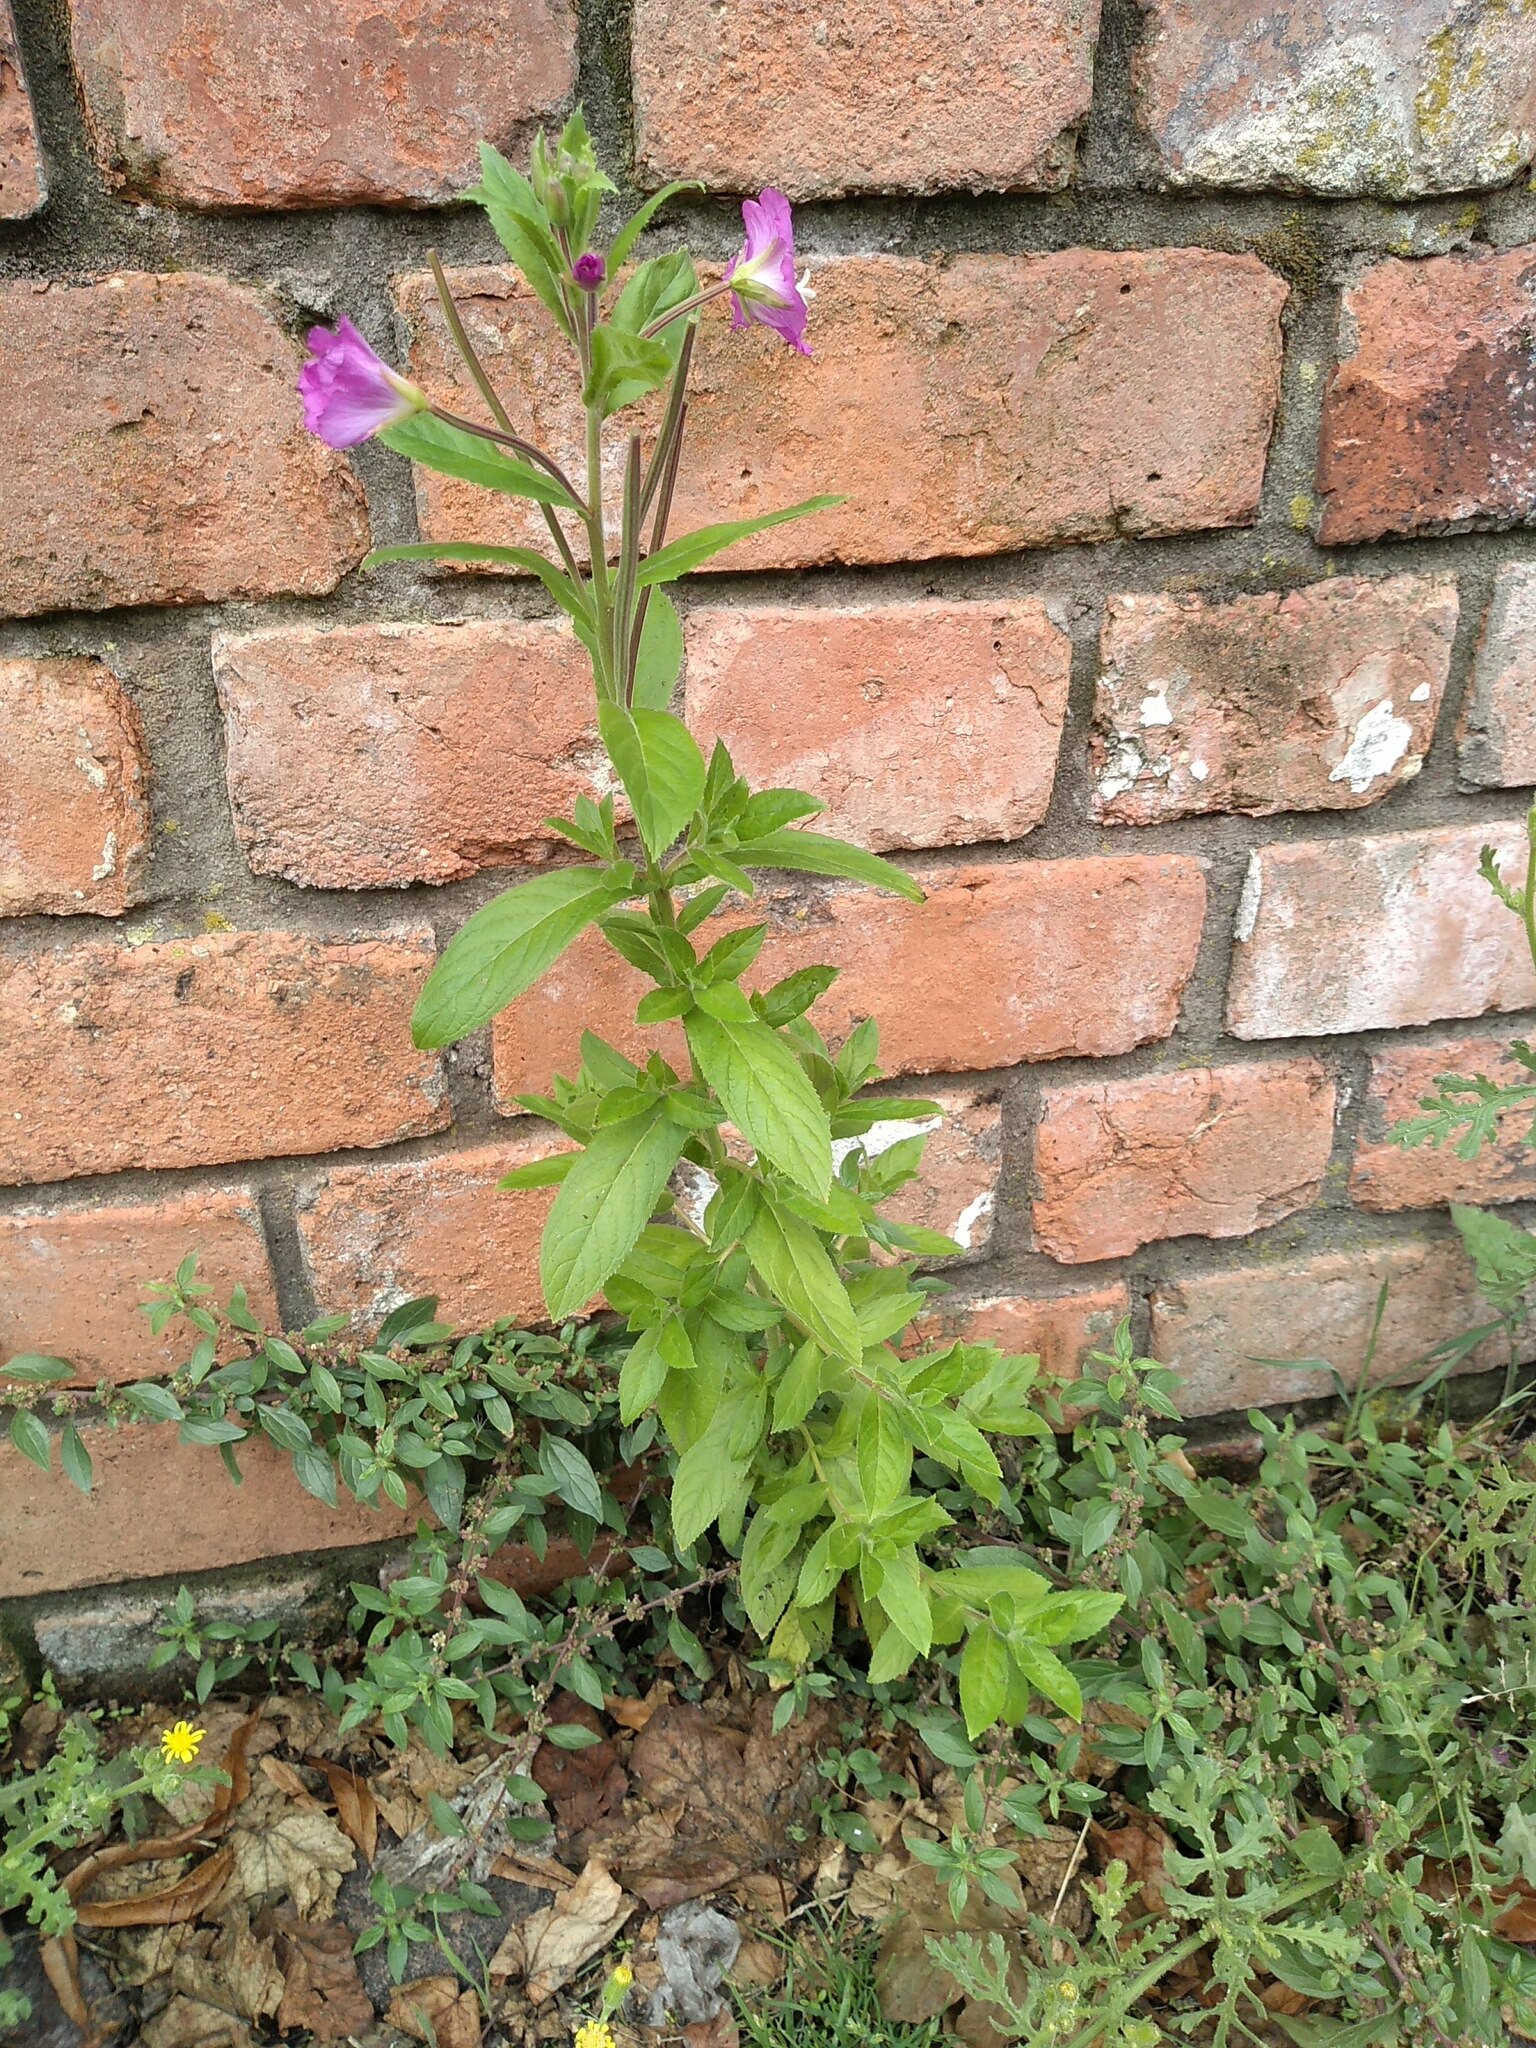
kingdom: Plantae
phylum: Tracheophyta
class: Magnoliopsida
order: Myrtales
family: Onagraceae
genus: Epilobium
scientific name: Epilobium hirsutum
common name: Great willowherb
